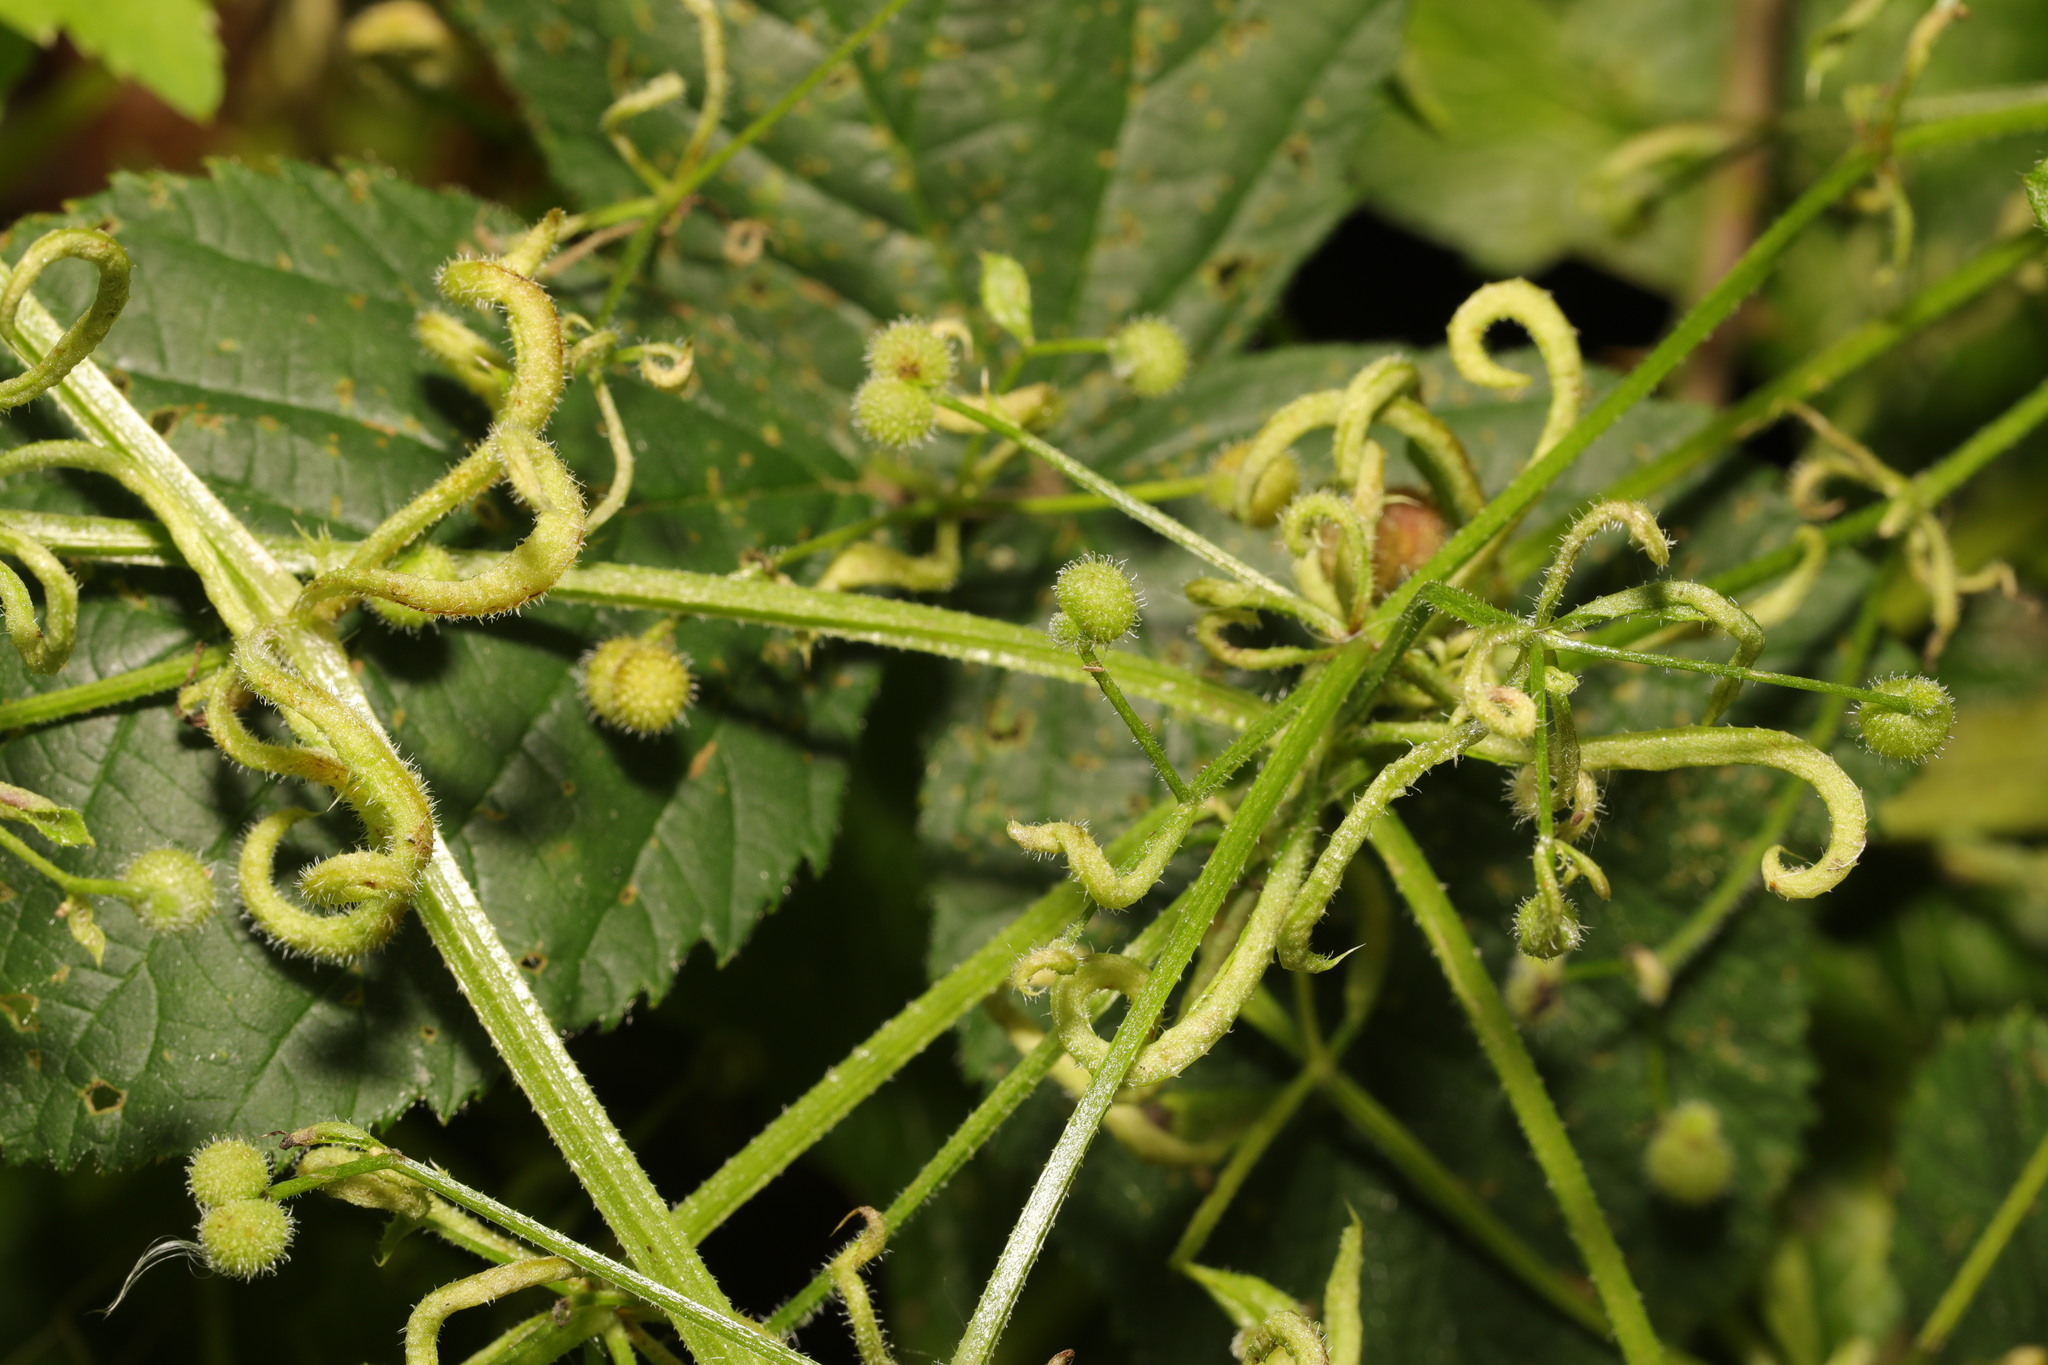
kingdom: Animalia
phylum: Arthropoda
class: Arachnida
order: Trombidiformes
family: Eriophyidae
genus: Cecidophyes
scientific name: Cecidophyes rouhollahi
